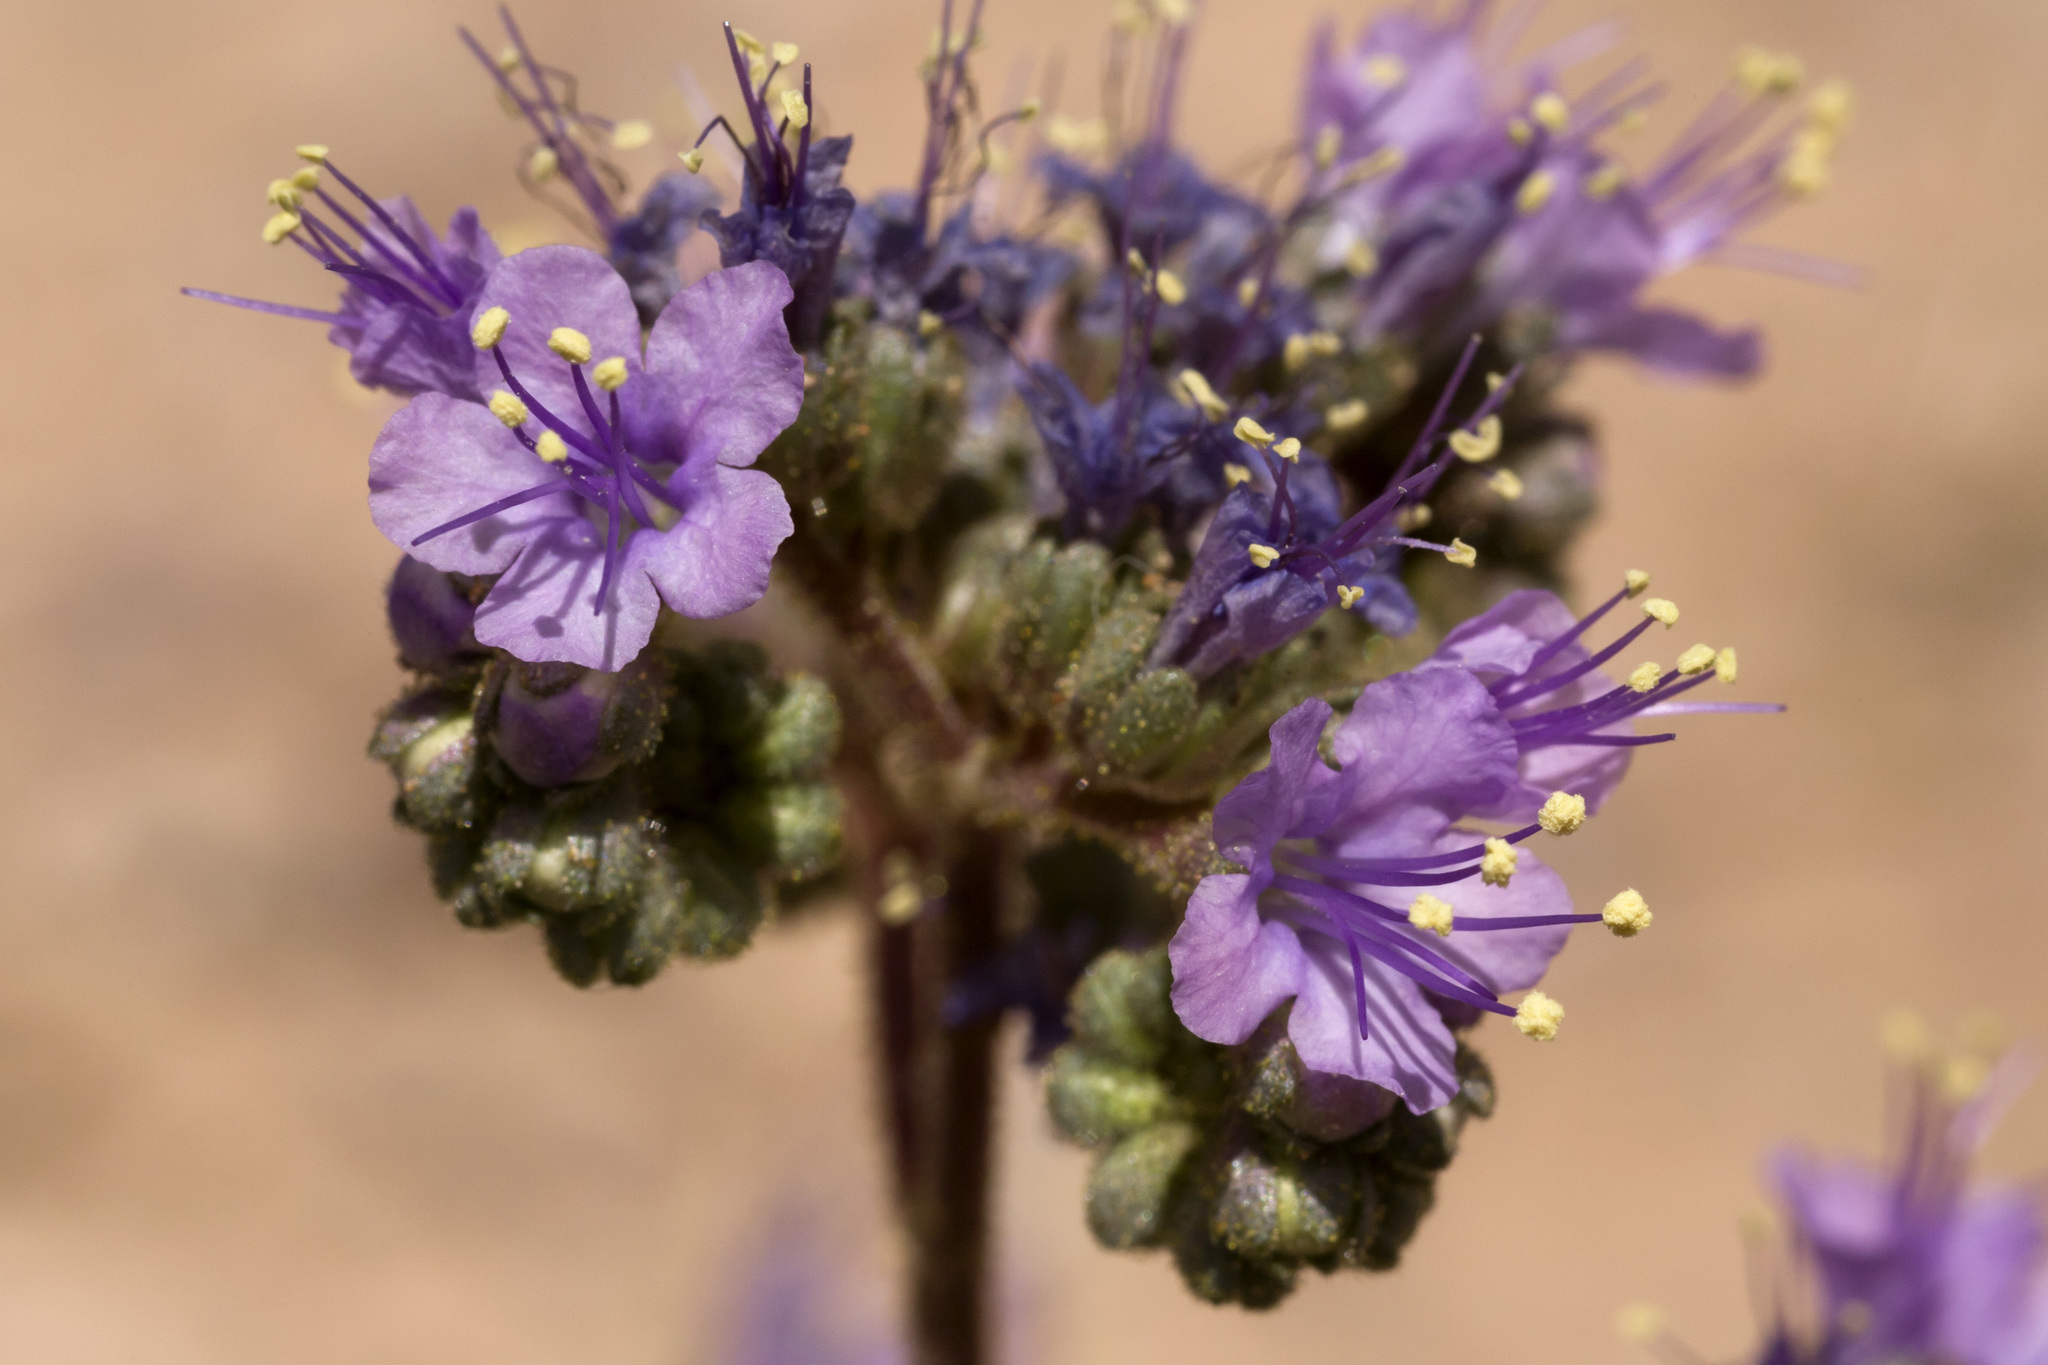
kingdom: Plantae
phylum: Tracheophyta
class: Magnoliopsida
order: Boraginales
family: Hydrophyllaceae
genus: Phacelia
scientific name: Phacelia crenulata
